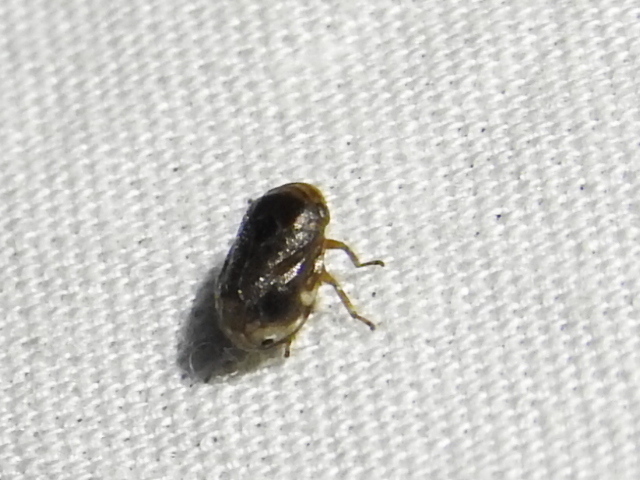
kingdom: Animalia
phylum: Arthropoda
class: Insecta
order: Hemiptera
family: Clastopteridae
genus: Clastoptera
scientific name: Clastoptera xanthocephala
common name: Sunflower spittlebug
